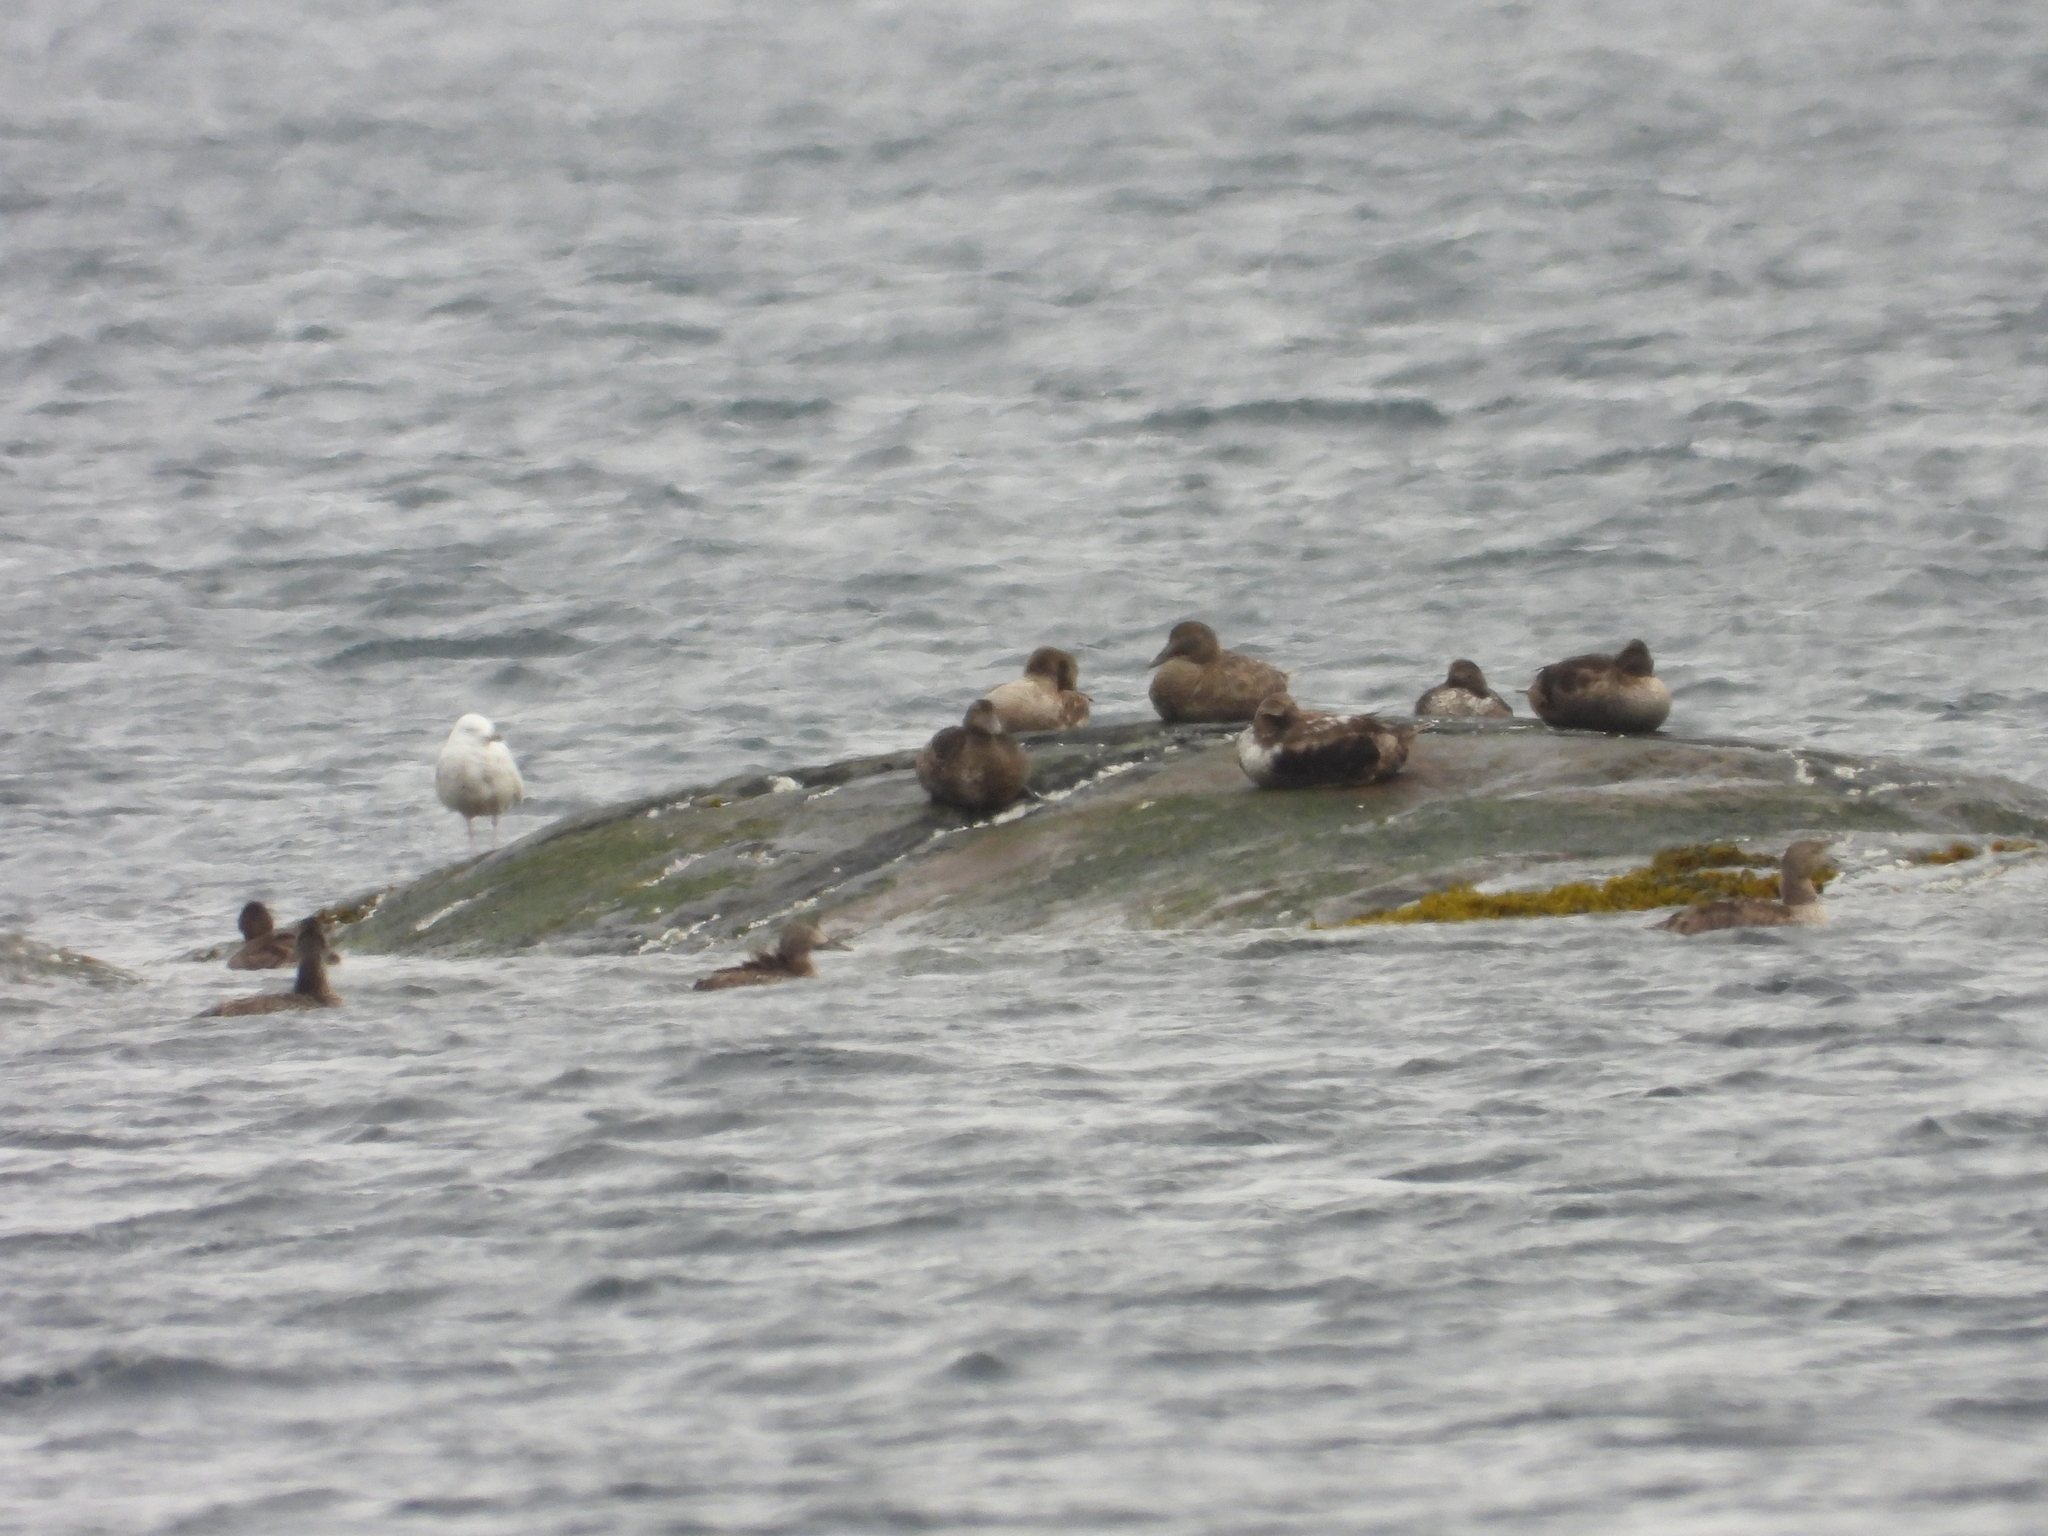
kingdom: Animalia
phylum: Chordata
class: Aves
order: Anseriformes
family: Anatidae
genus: Somateria
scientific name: Somateria mollissima
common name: Common eider
